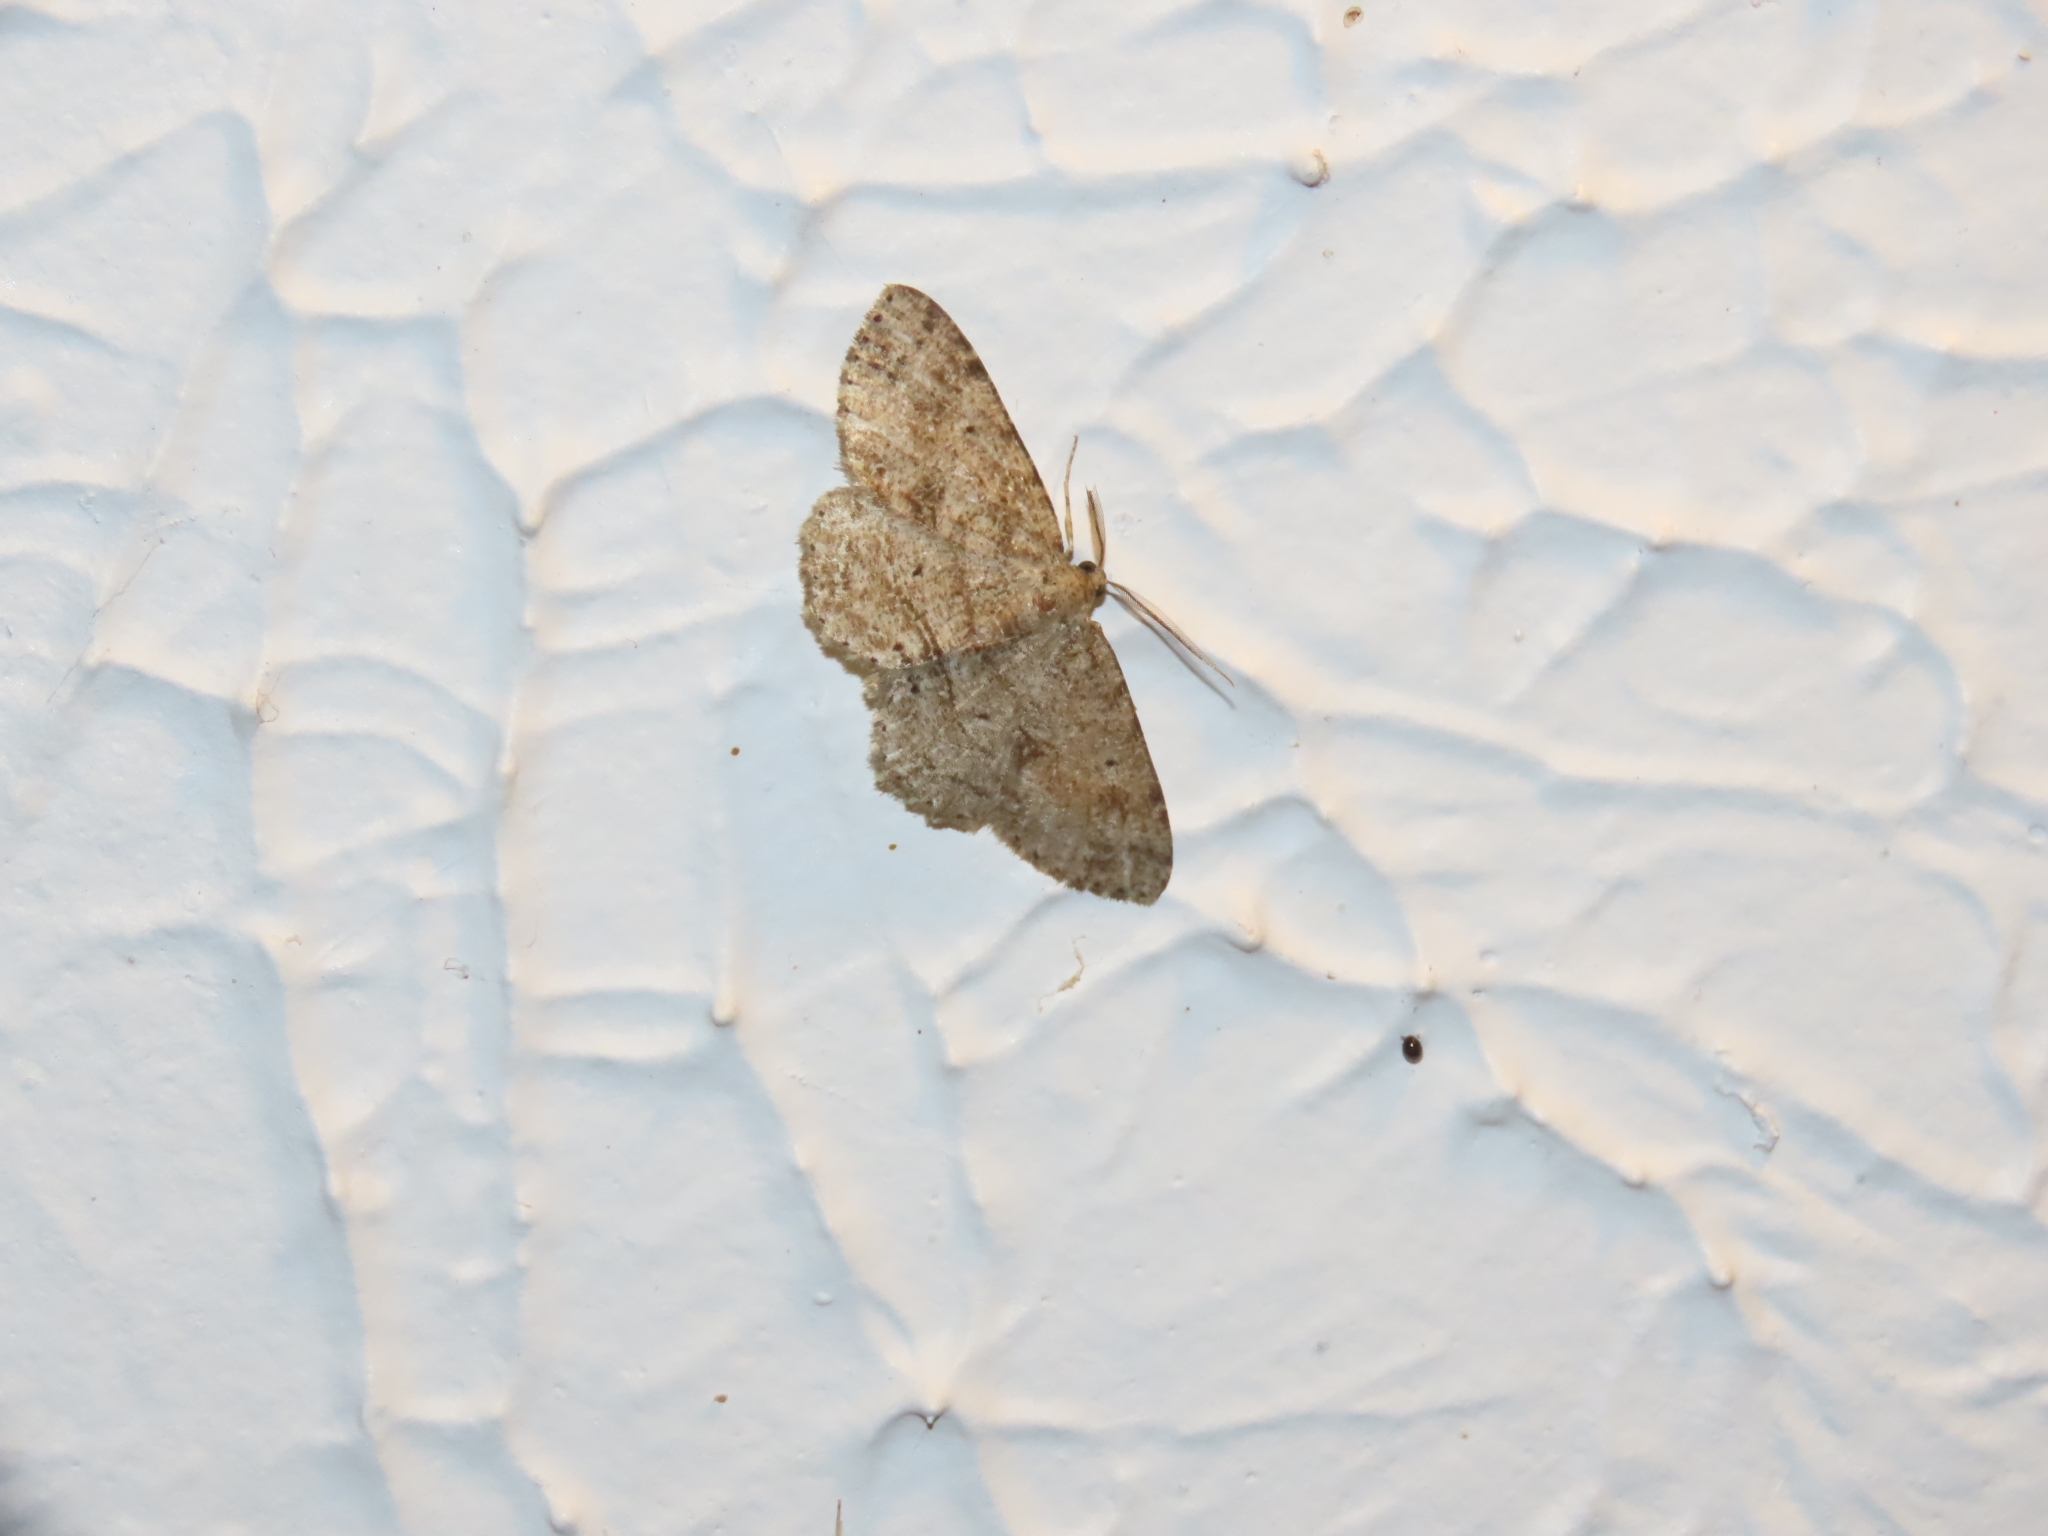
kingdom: Animalia
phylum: Arthropoda
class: Insecta
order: Lepidoptera
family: Geometridae
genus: Melanolophia
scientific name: Melanolophia canadaria
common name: Canadian melanolophia
